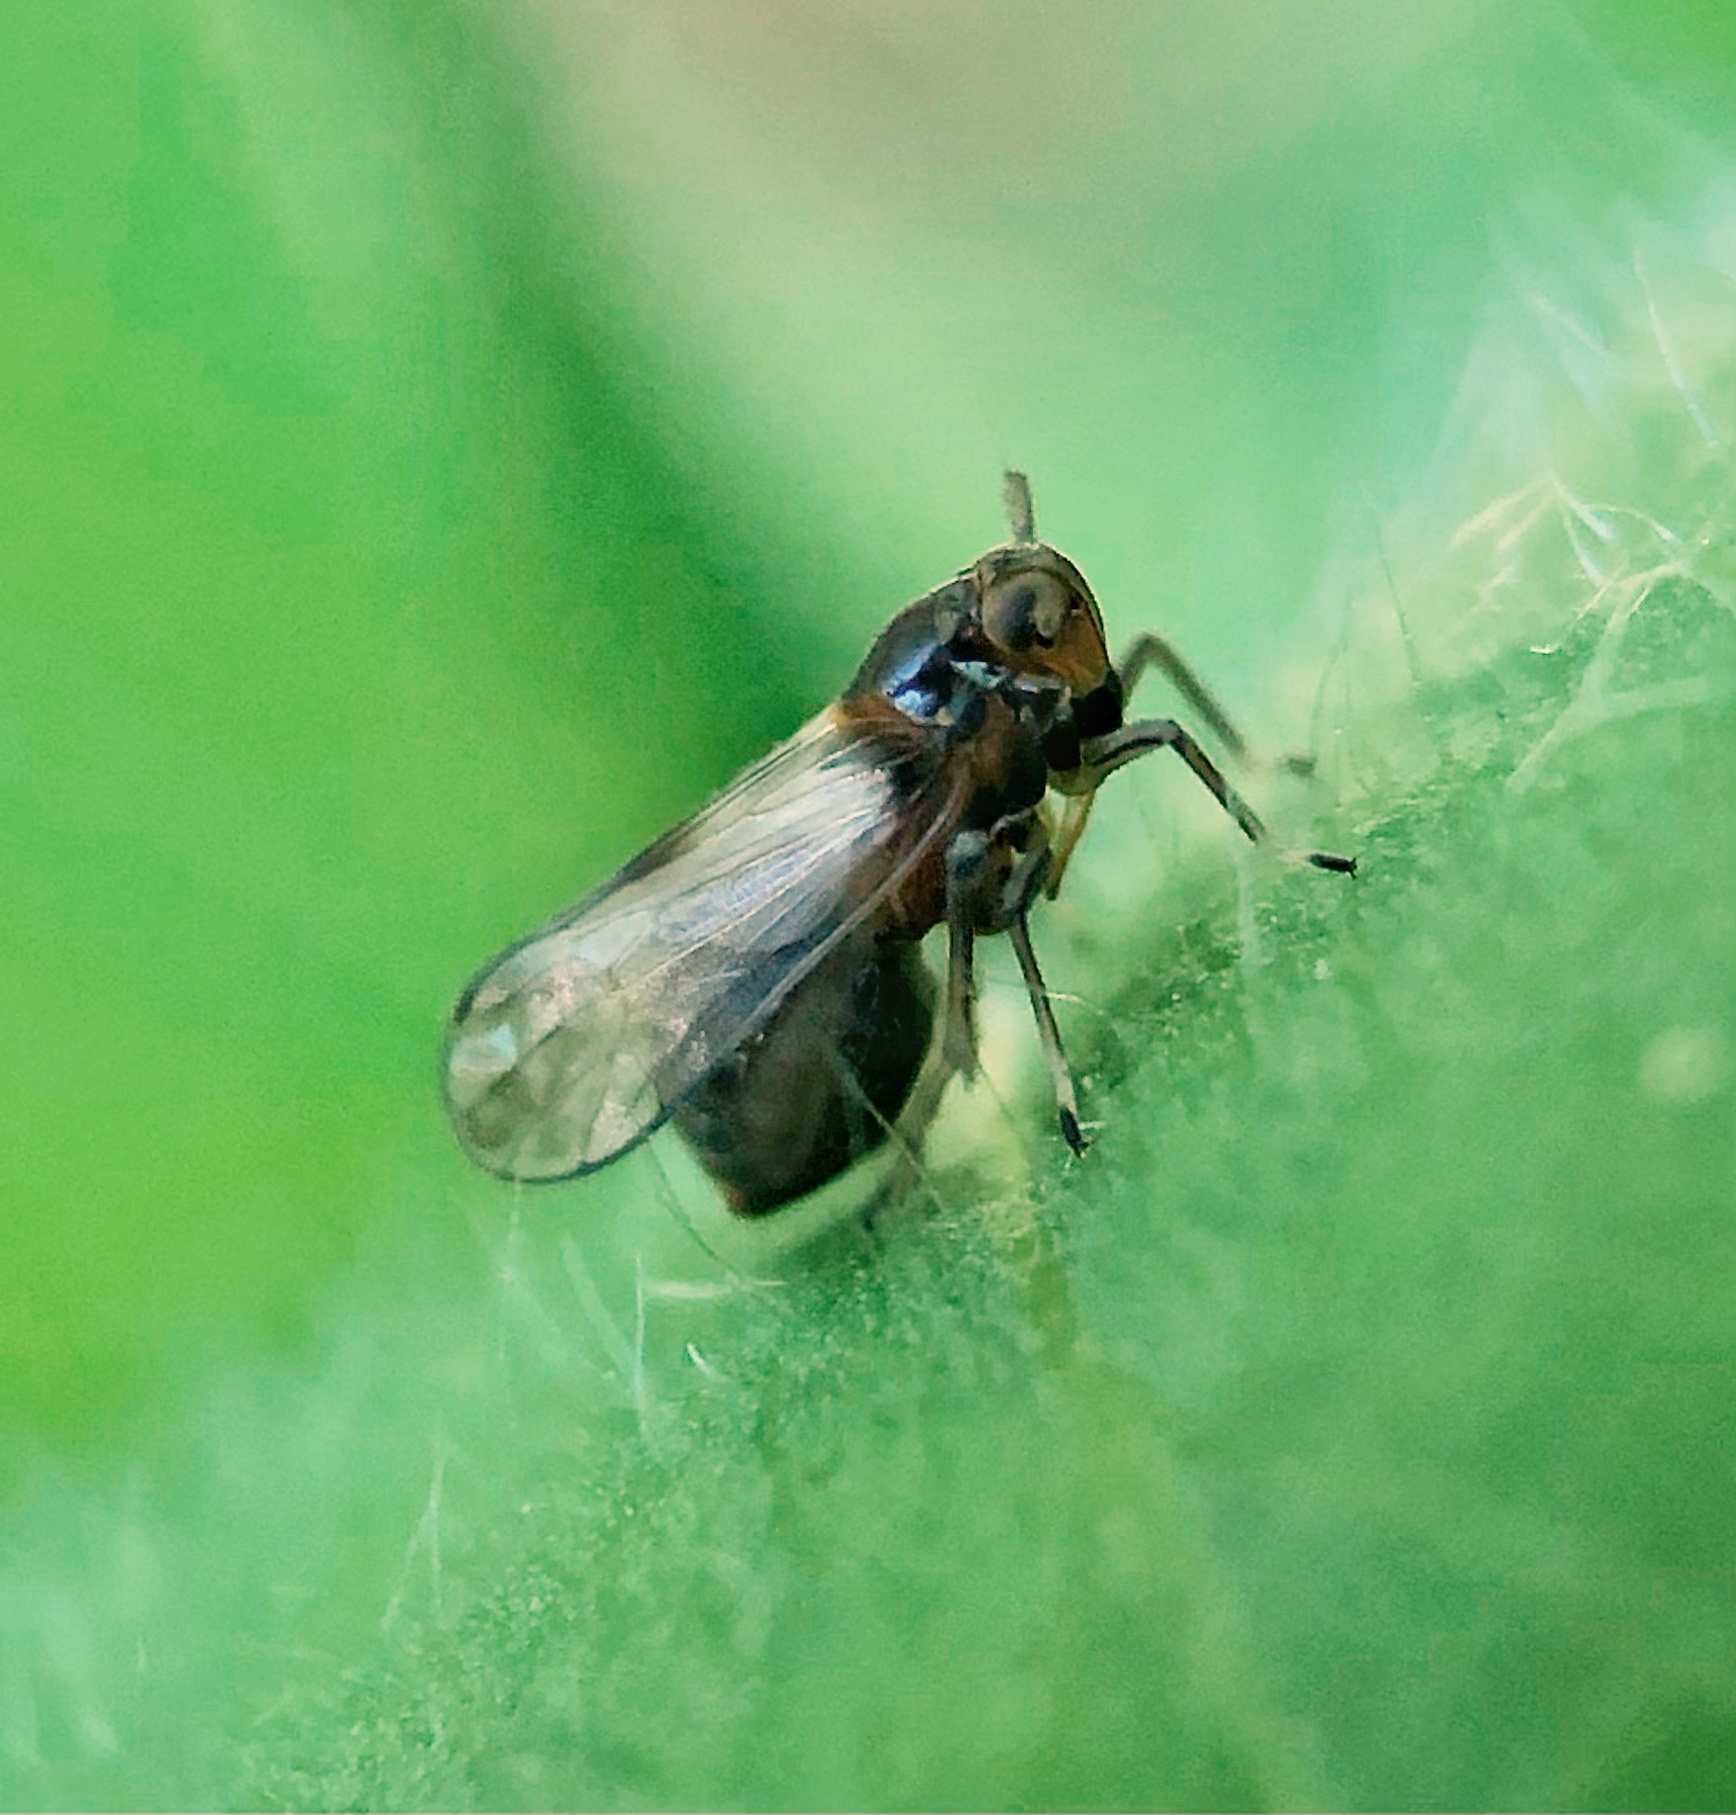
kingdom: Animalia
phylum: Arthropoda
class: Insecta
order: Hemiptera
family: Delphacidae
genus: Pissonotus
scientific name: Pissonotus binotatus
